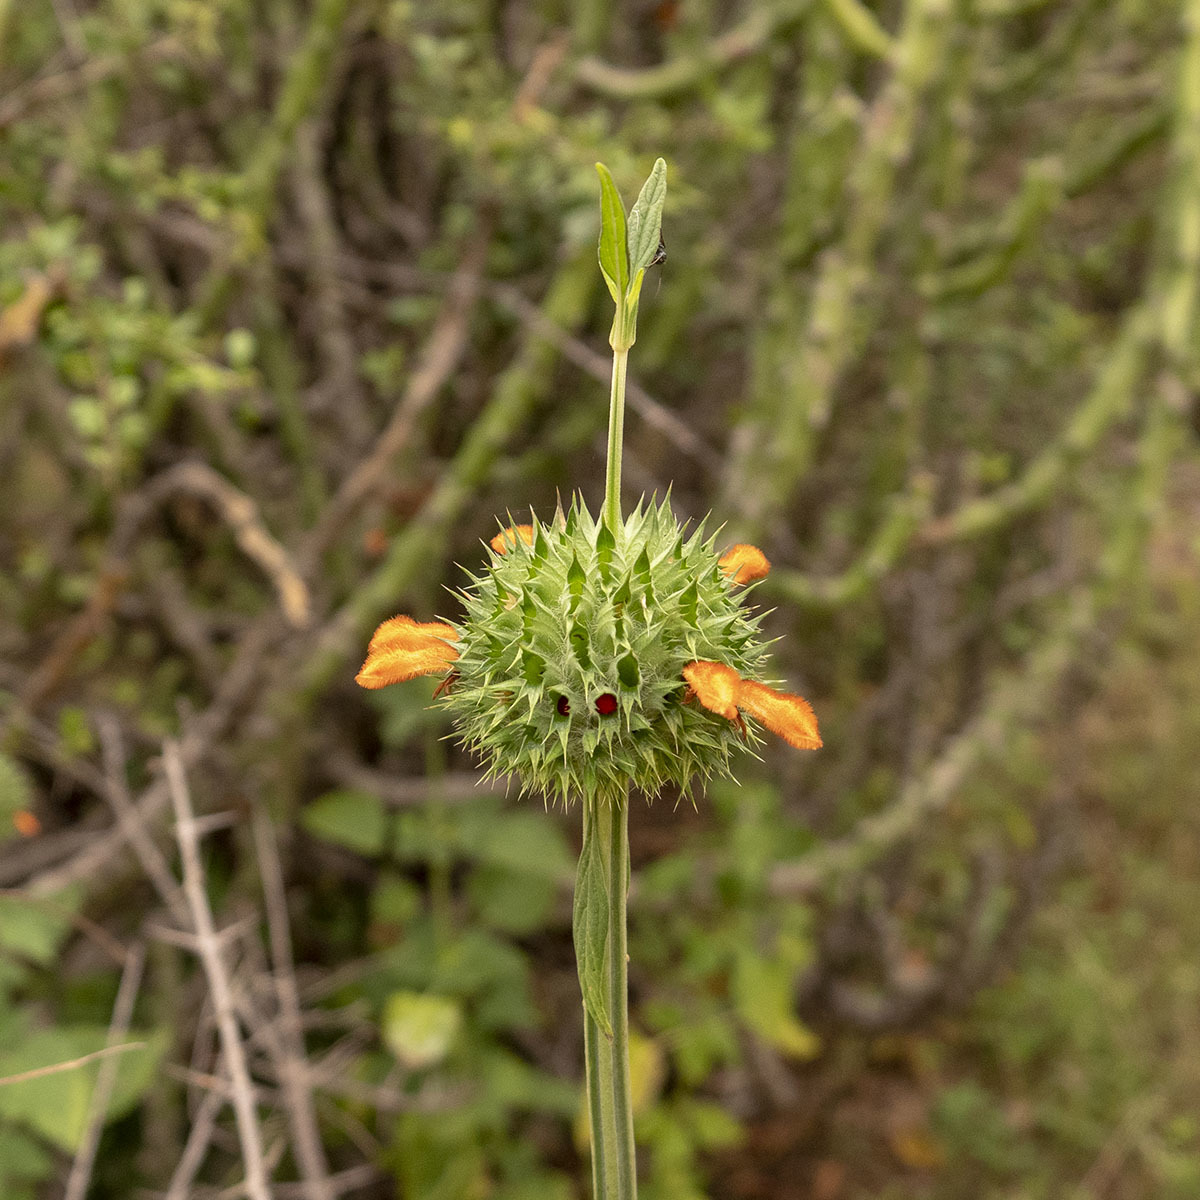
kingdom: Plantae
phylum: Tracheophyta
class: Magnoliopsida
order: Lamiales
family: Lamiaceae
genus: Leonotis
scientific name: Leonotis nepetifolia
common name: Christmas candlestick
